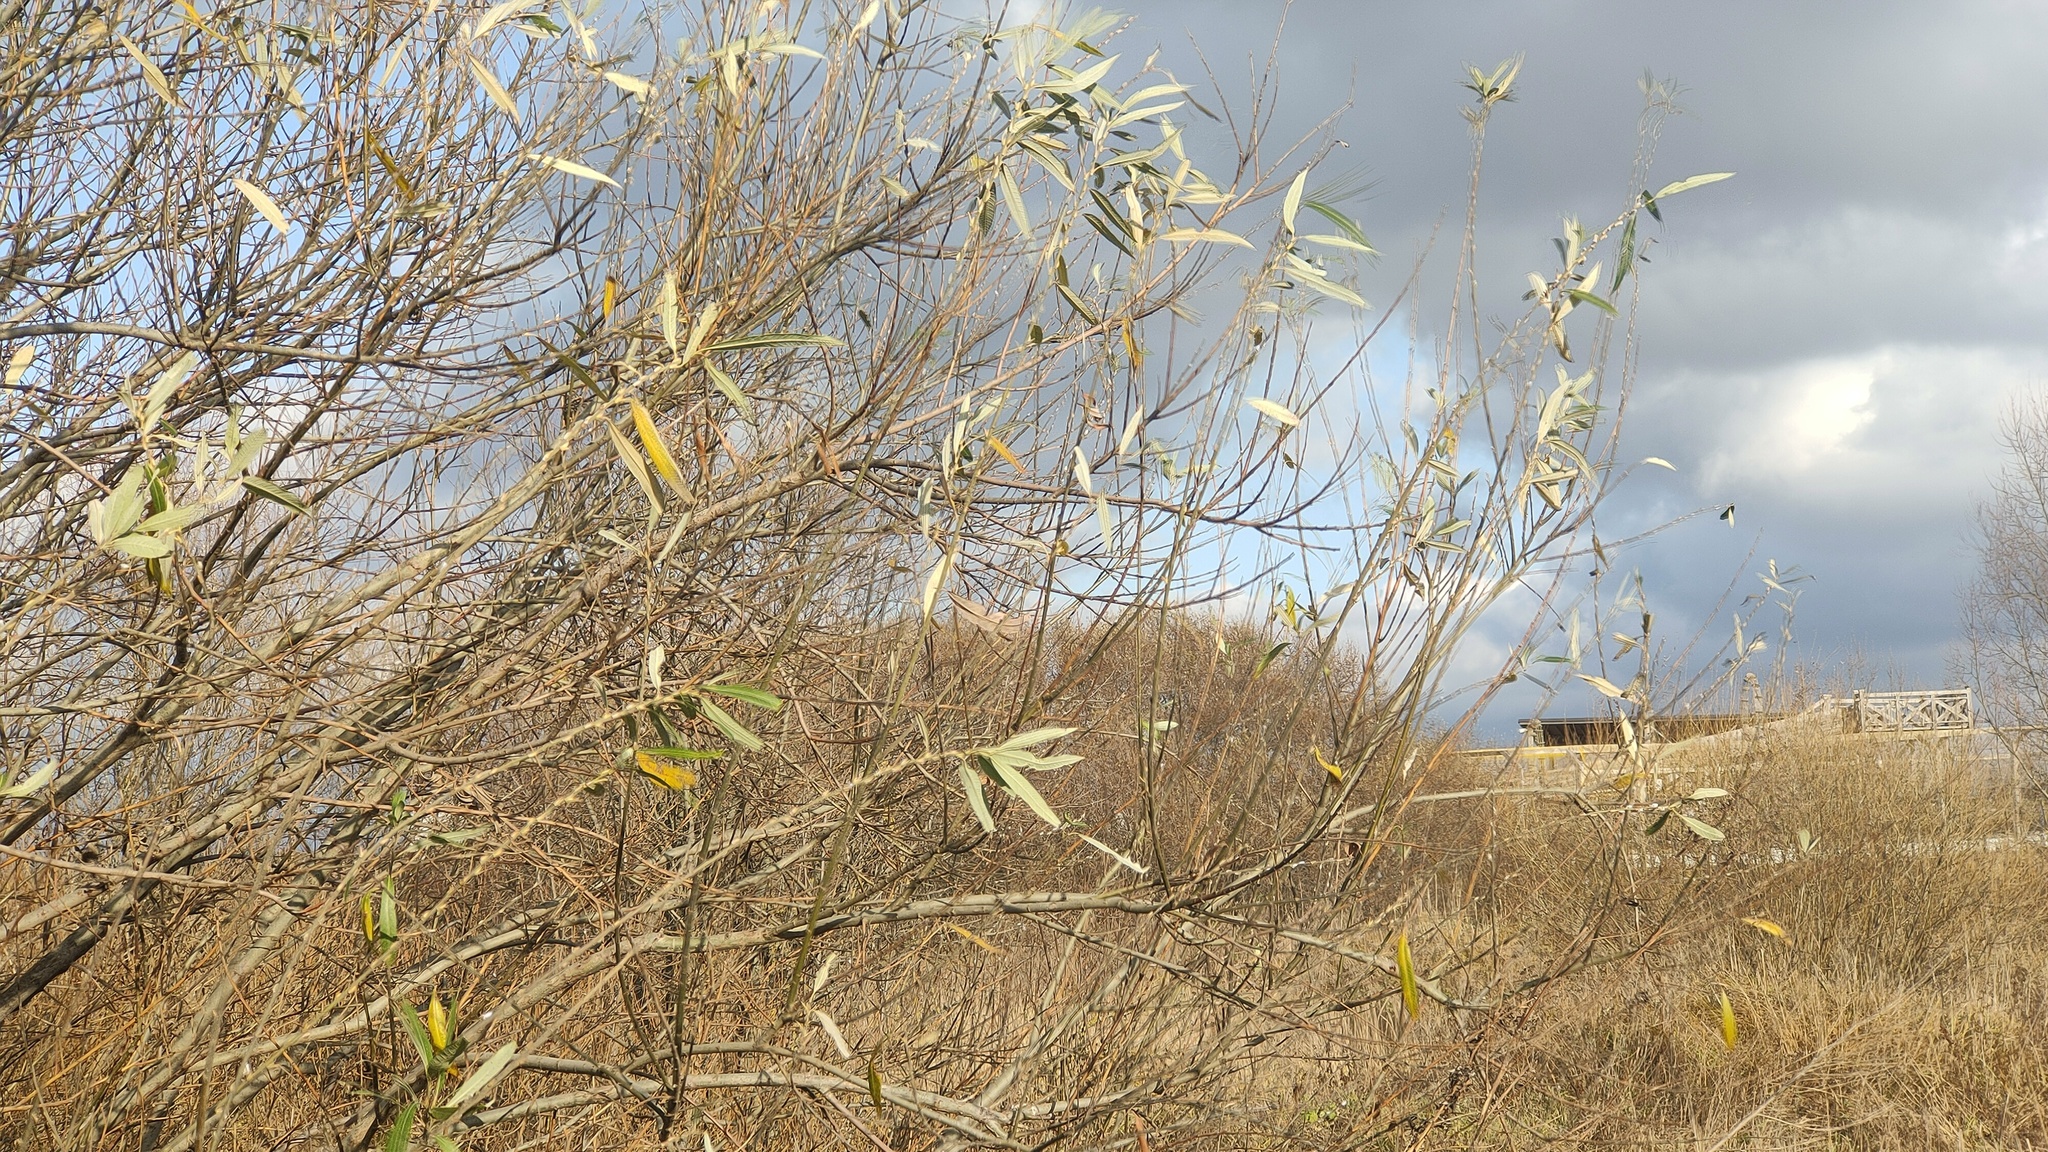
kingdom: Plantae
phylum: Tracheophyta
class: Magnoliopsida
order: Malpighiales
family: Salicaceae
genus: Salix
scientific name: Salix viminalis
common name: Osier
